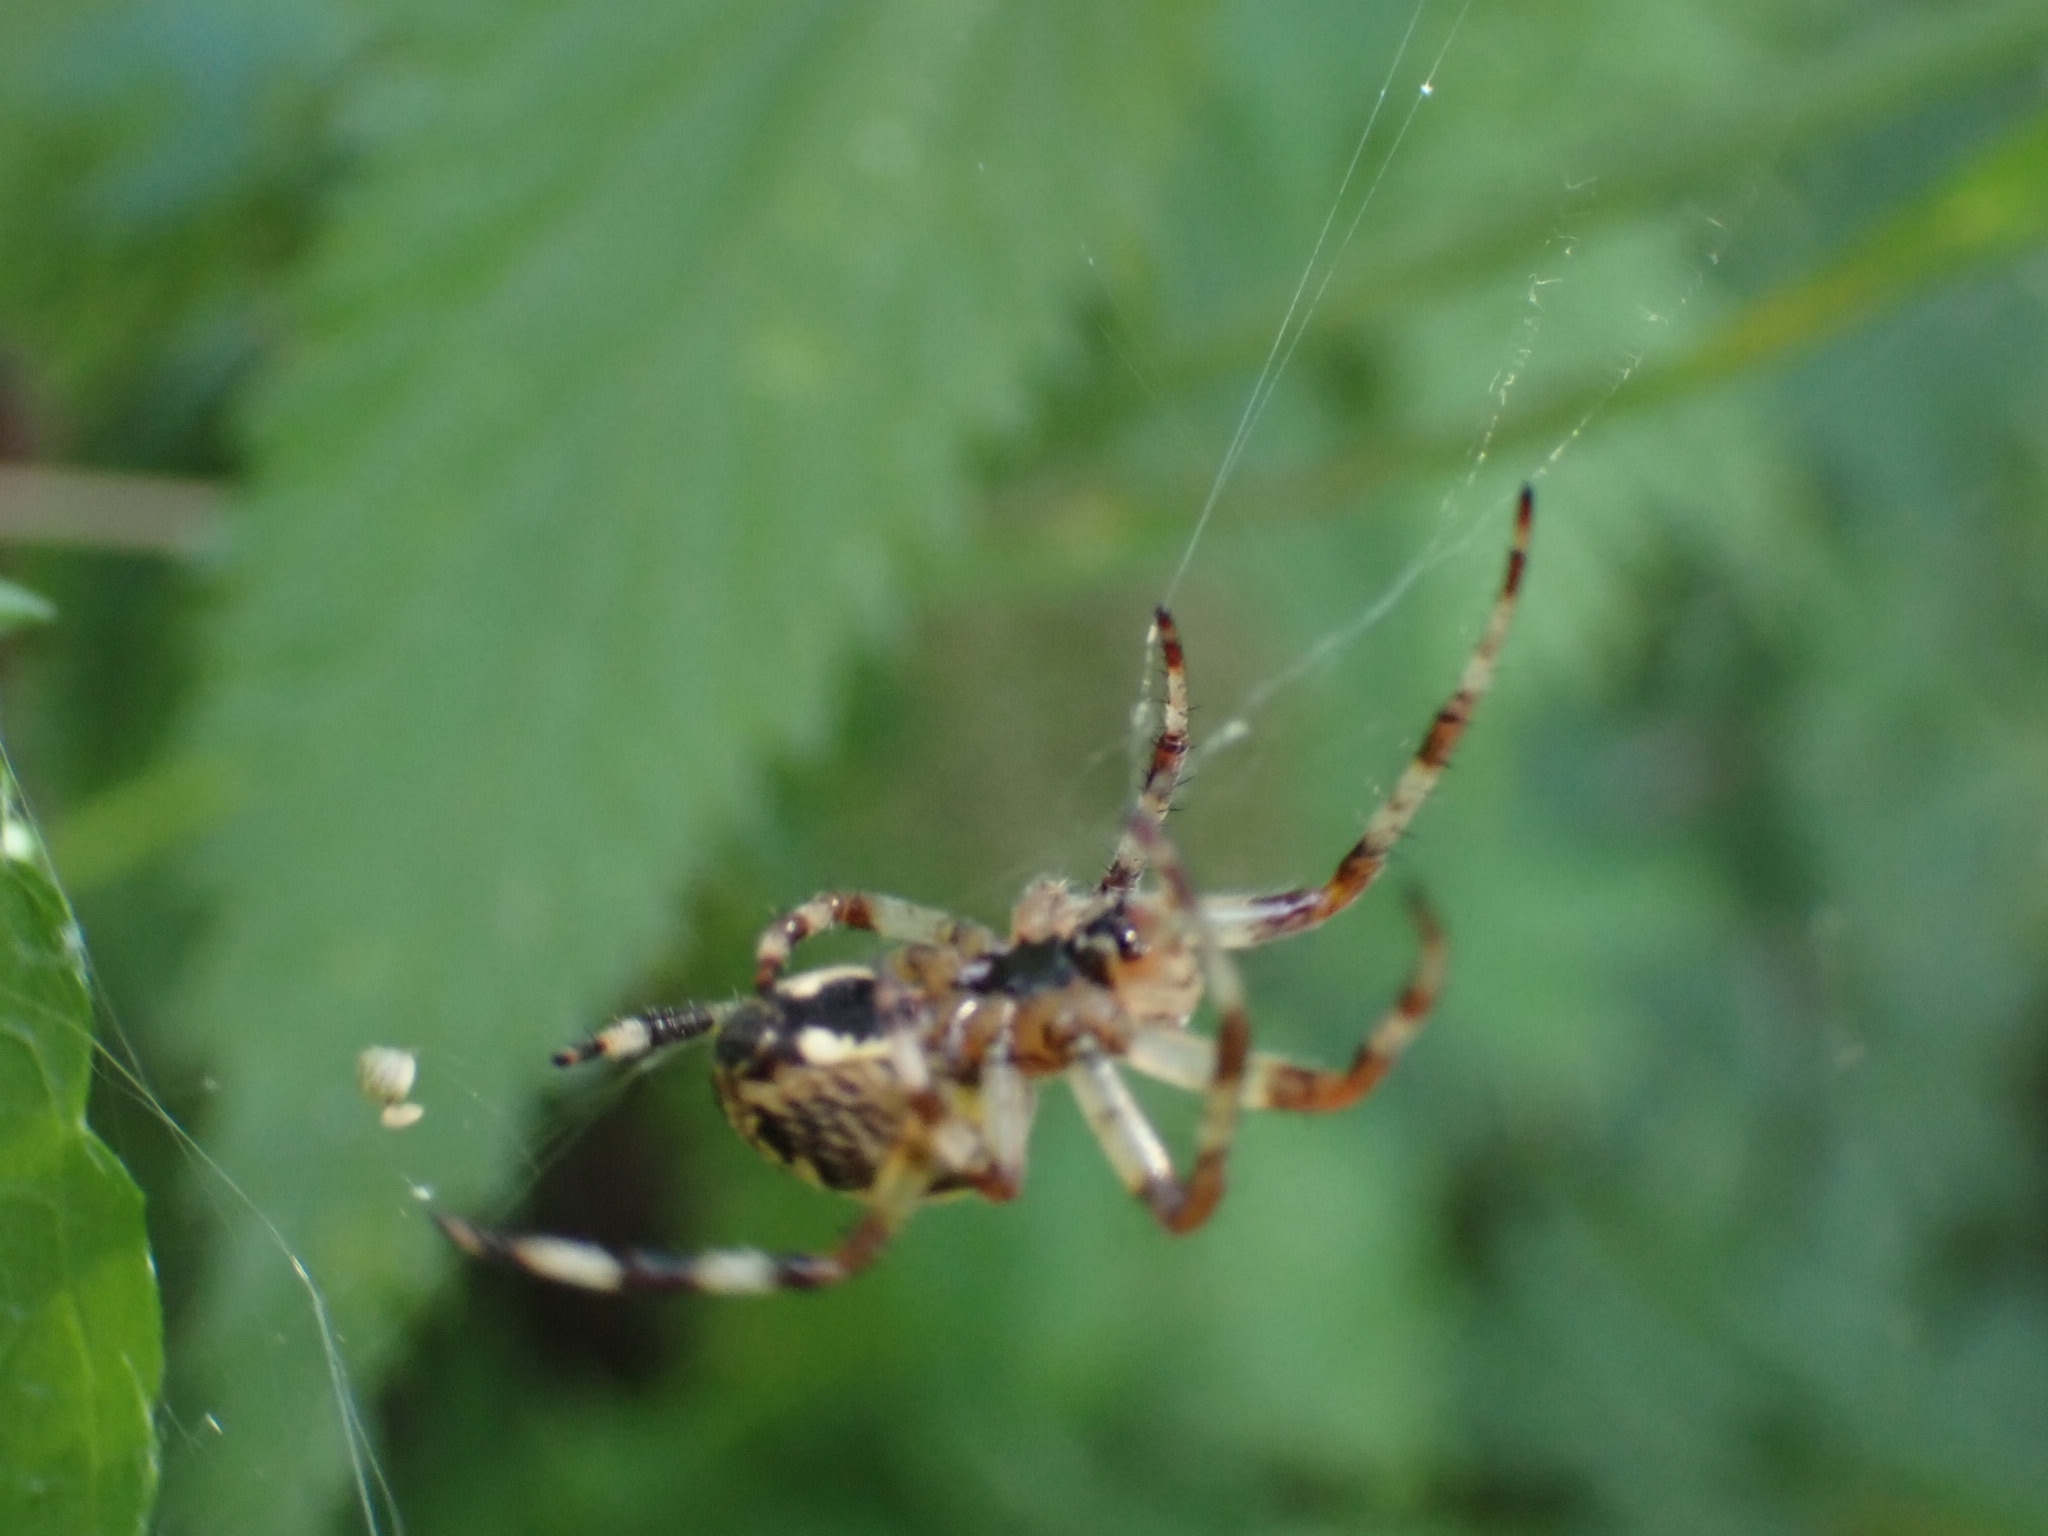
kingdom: Animalia
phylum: Arthropoda
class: Arachnida
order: Araneae
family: Araneidae
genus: Araneus
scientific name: Araneus marmoreus
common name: Marbled orbweaver
